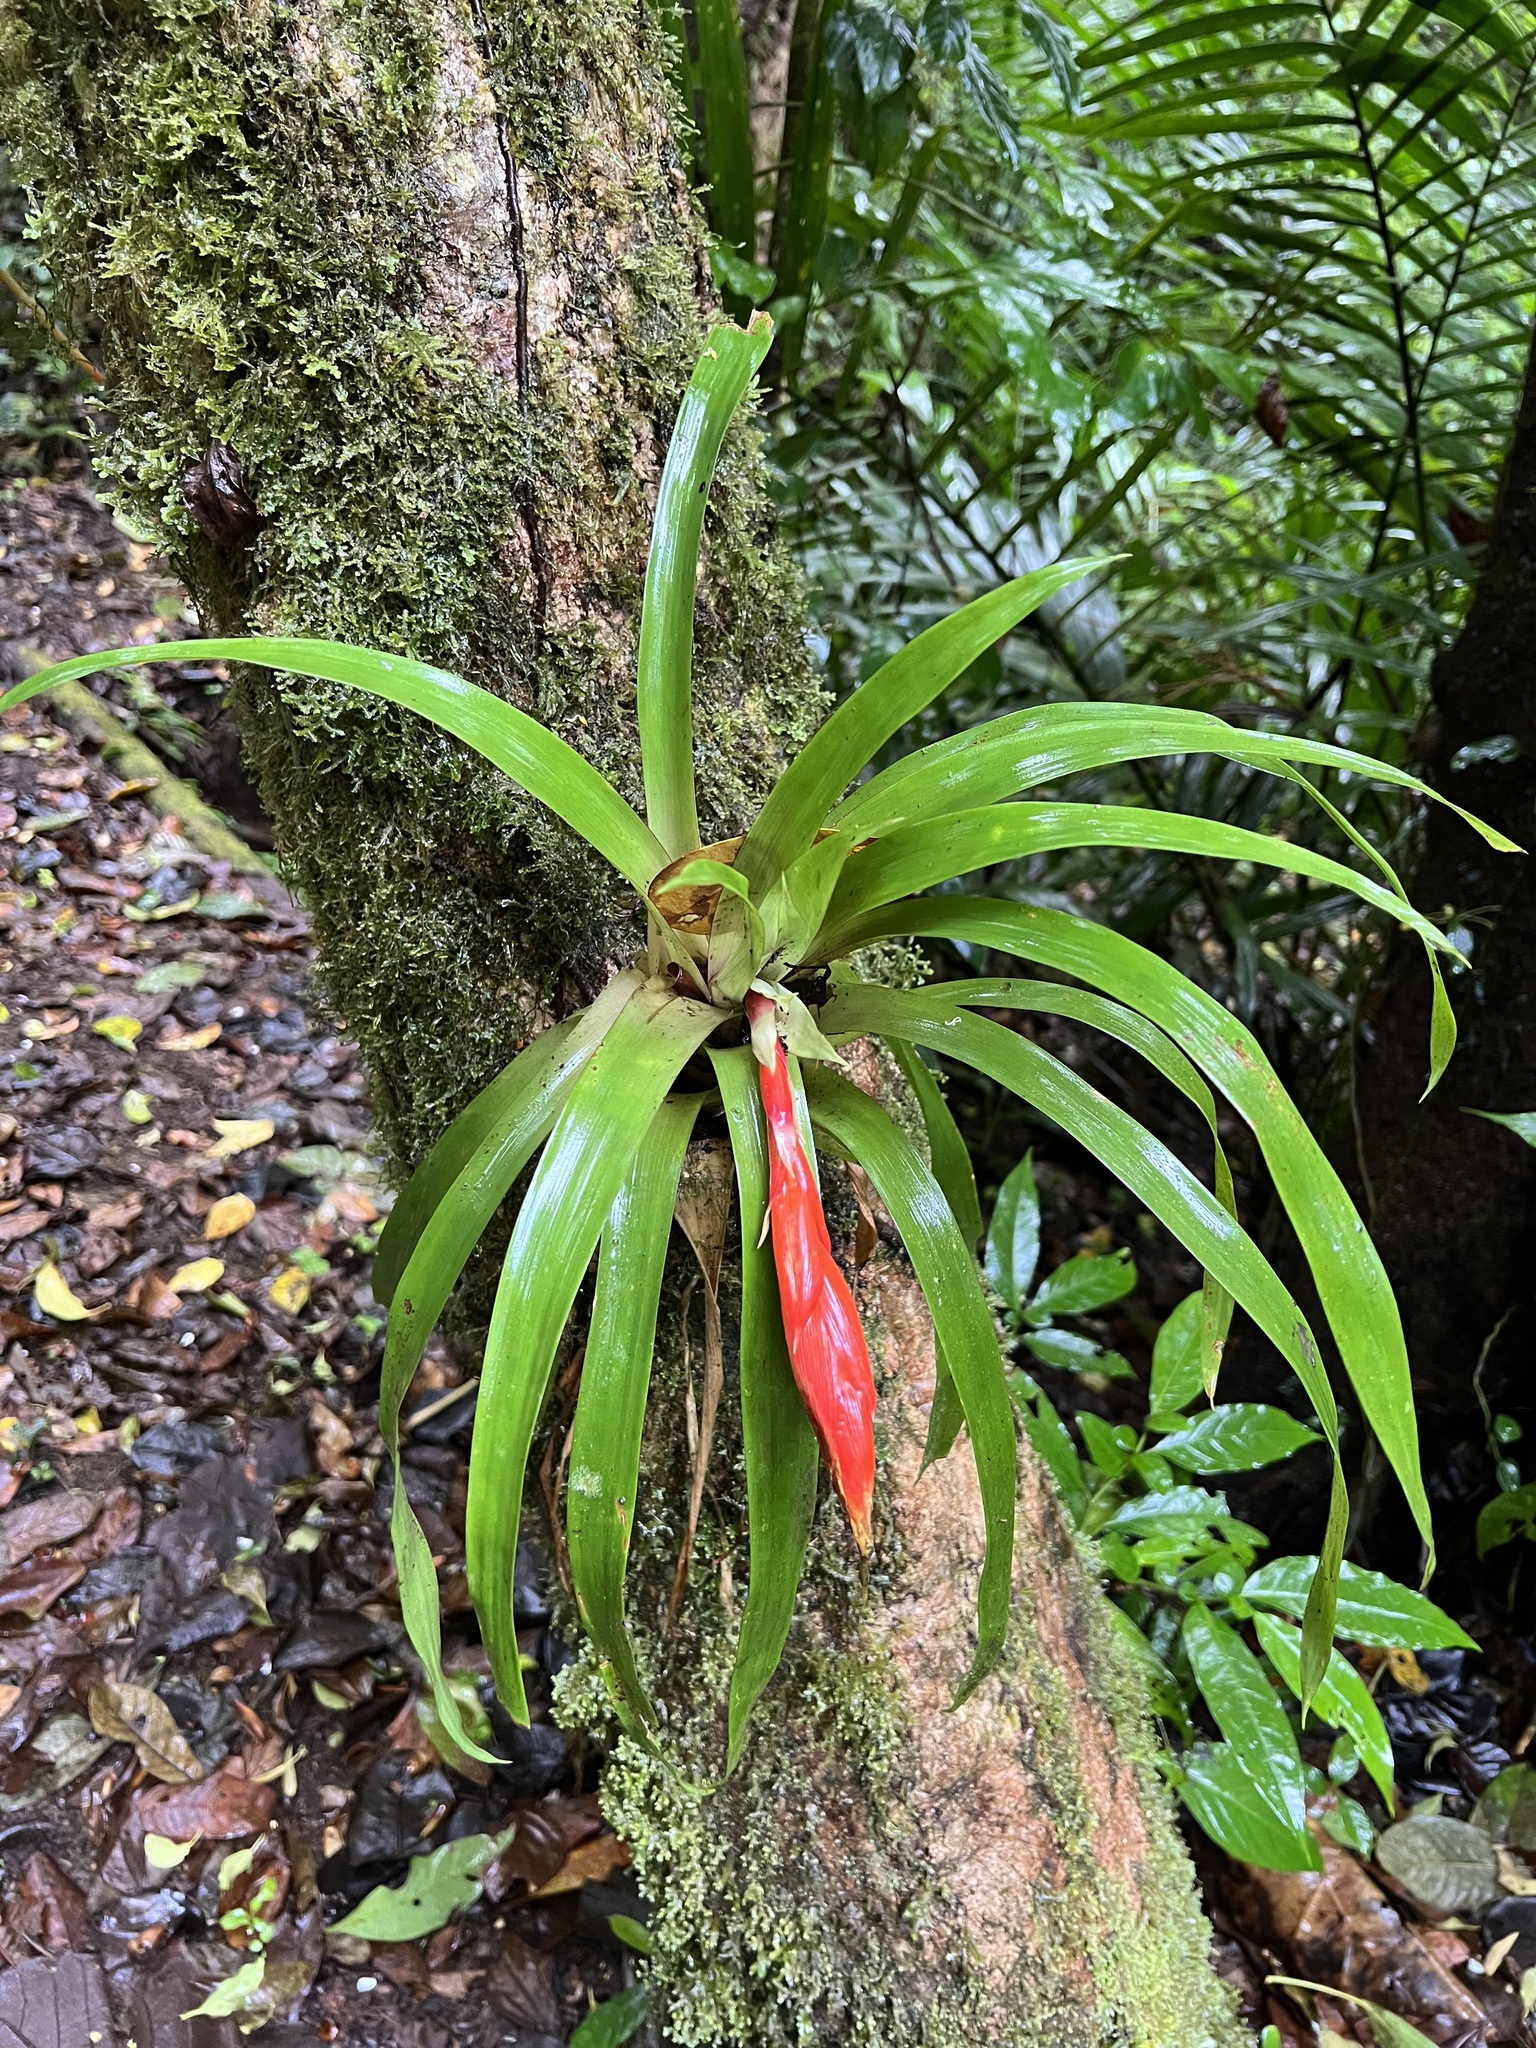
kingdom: Plantae
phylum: Tracheophyta
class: Liliopsida
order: Poales
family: Bromeliaceae
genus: Guzmania
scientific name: Guzmania nicaraguensis
